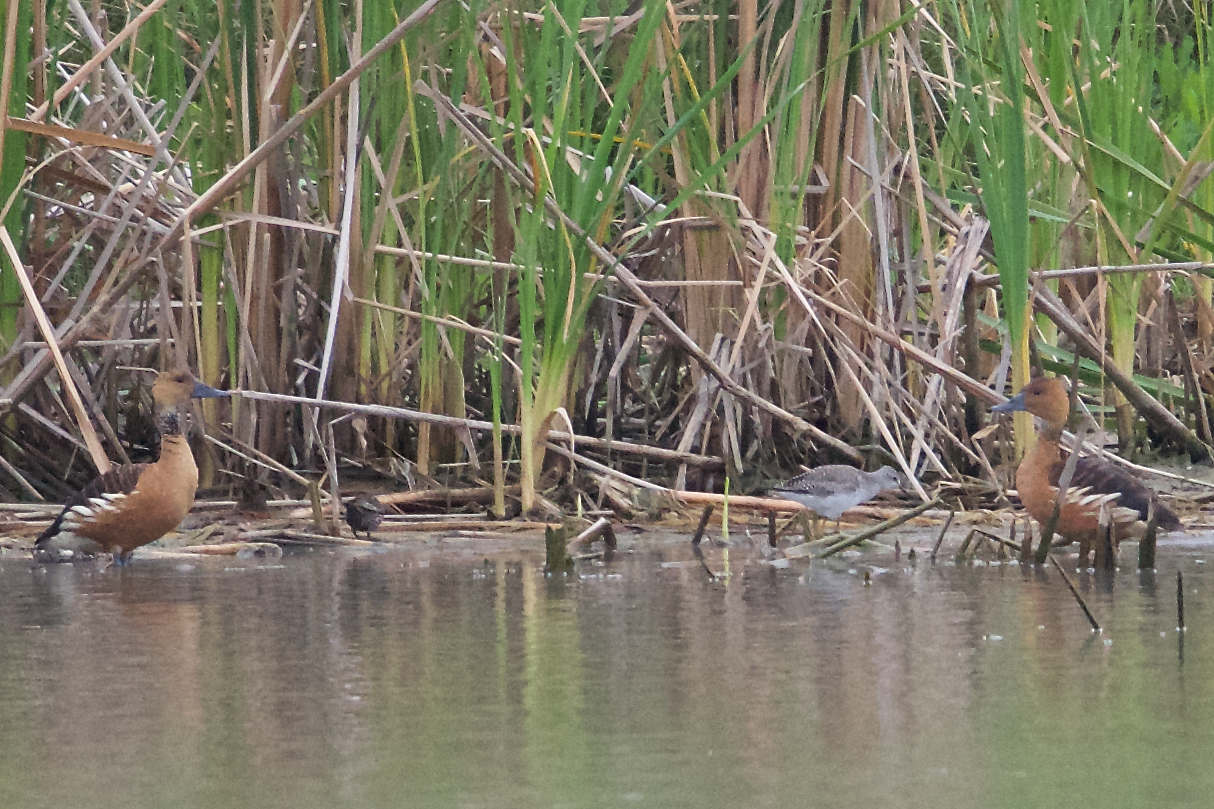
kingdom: Animalia
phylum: Chordata
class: Aves
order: Anseriformes
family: Anatidae
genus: Dendrocygna
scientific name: Dendrocygna bicolor
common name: Fulvous whistling duck
